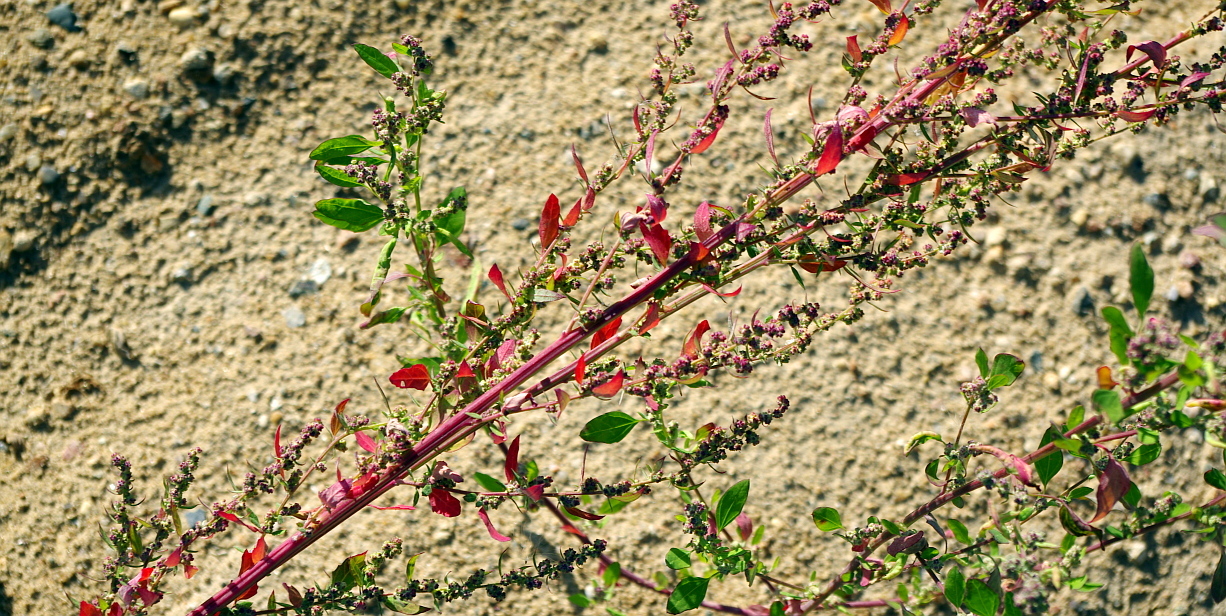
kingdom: Plantae
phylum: Tracheophyta
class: Magnoliopsida
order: Caryophyllales
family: Amaranthaceae
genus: Chenopodium
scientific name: Chenopodium album
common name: Fat-hen
